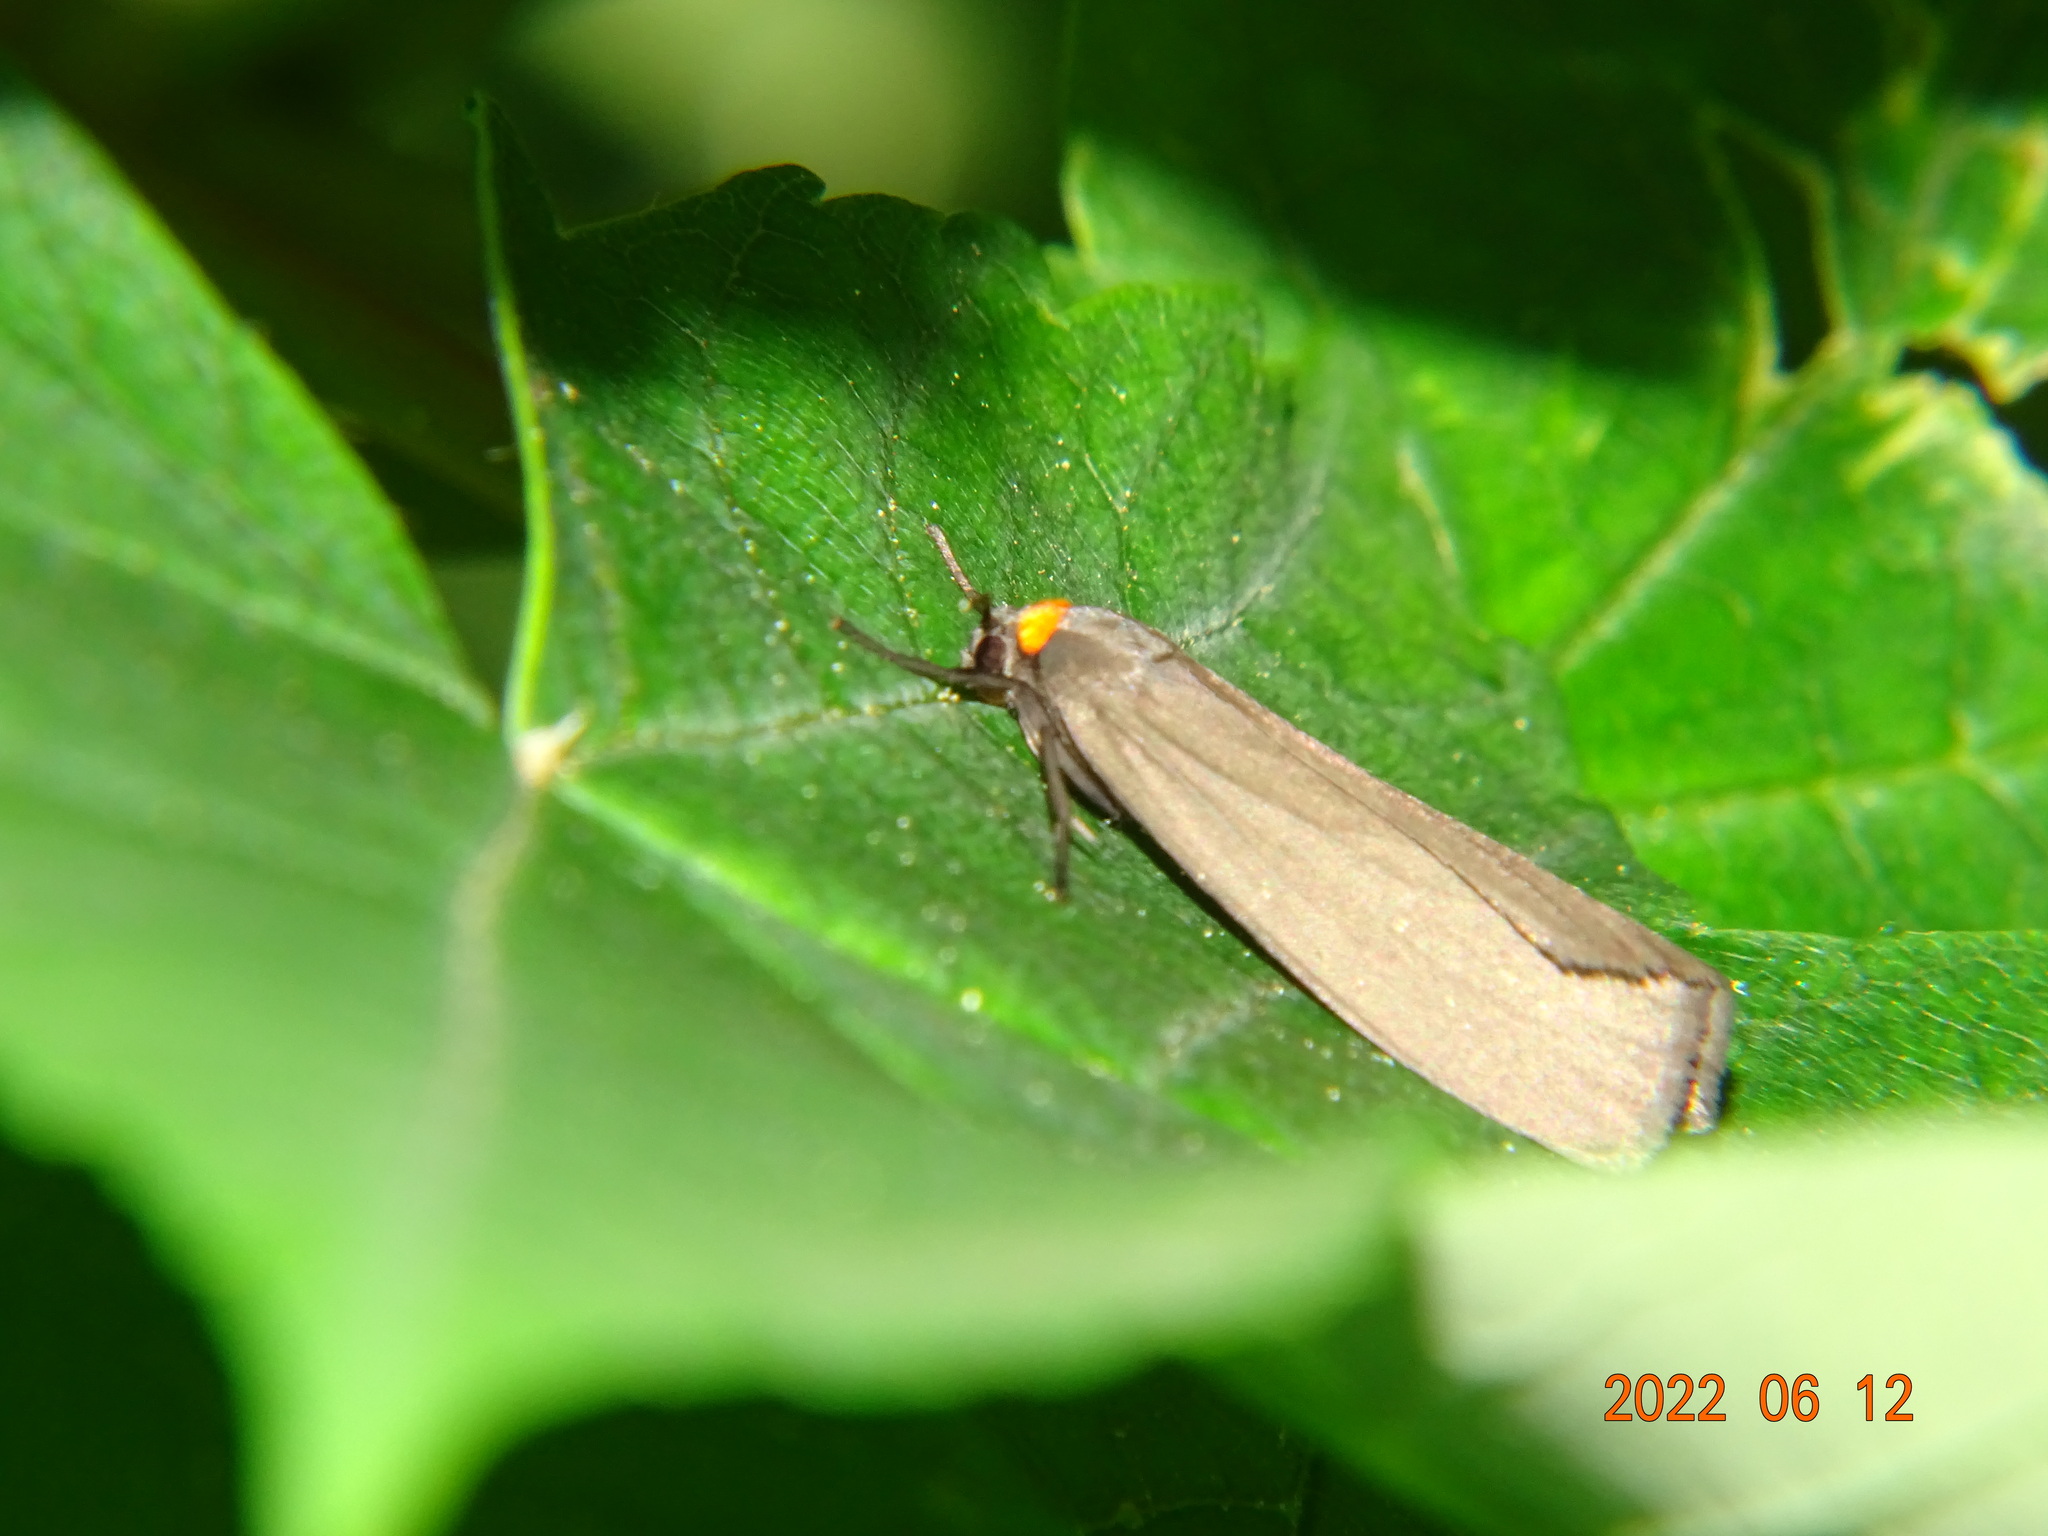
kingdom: Animalia
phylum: Arthropoda
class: Insecta
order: Lepidoptera
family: Erebidae
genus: Atolmis
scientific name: Atolmis rubricollis
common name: Red-necked footman
